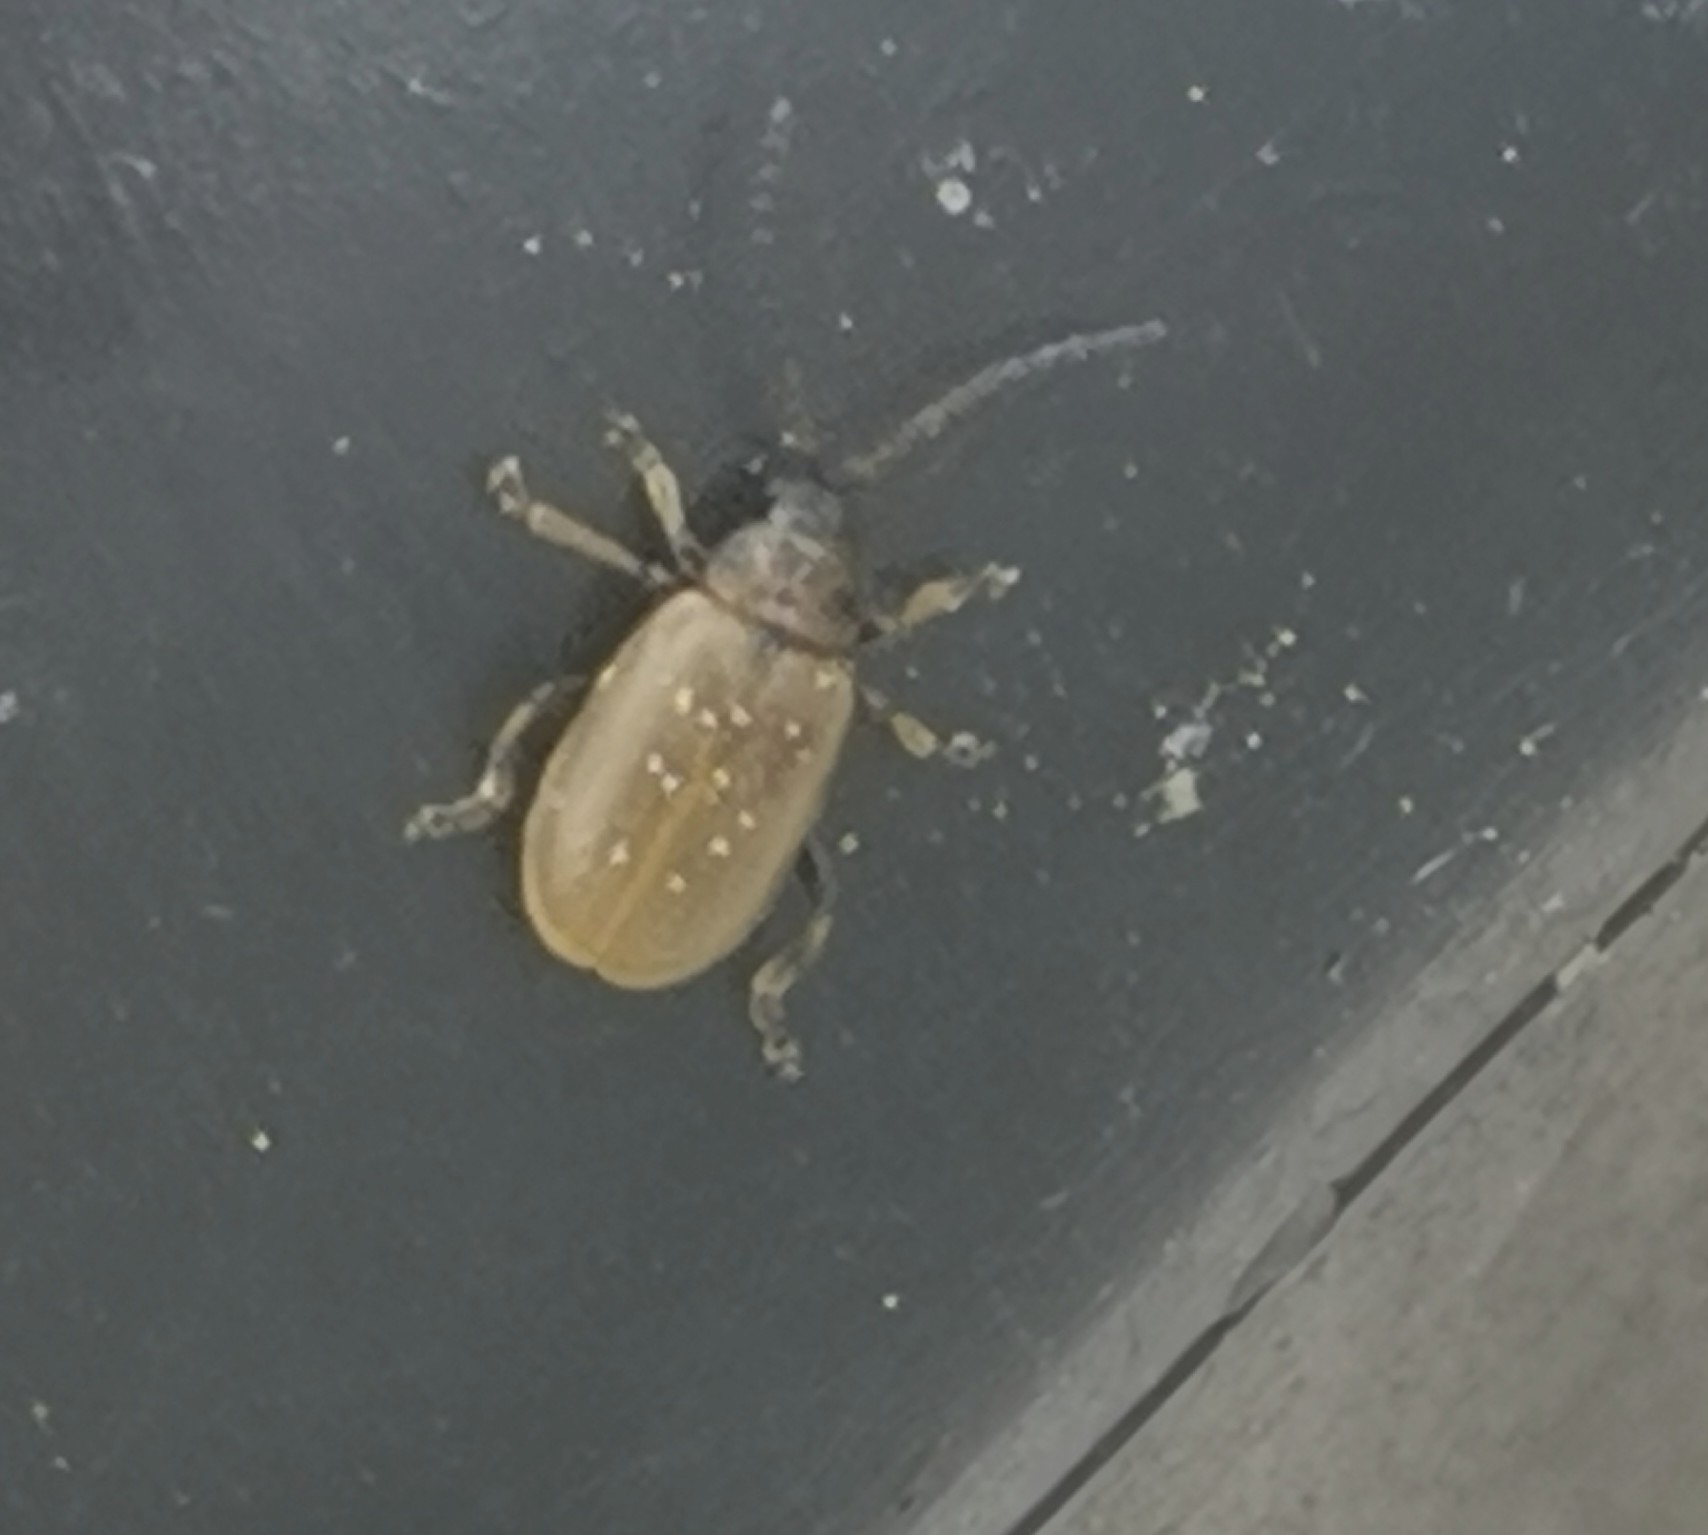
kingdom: Animalia
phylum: Arthropoda
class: Insecta
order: Coleoptera
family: Chrysomelidae
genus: Lochmaea
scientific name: Lochmaea caprea
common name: Willow leaf beetle
